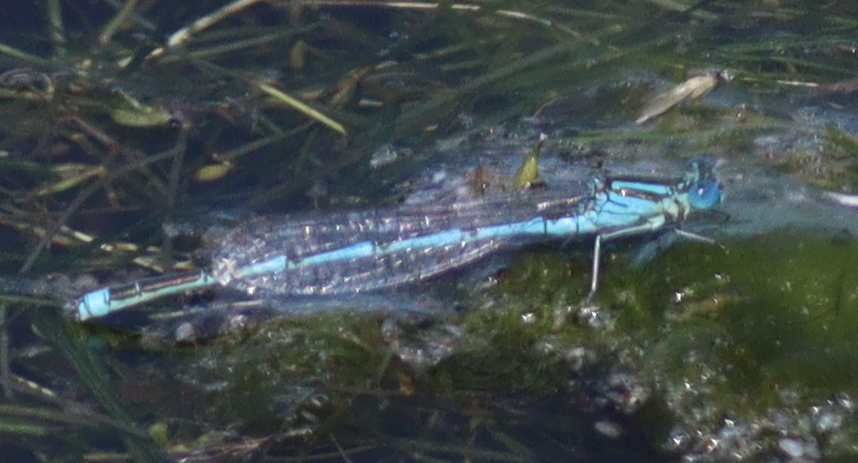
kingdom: Animalia
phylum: Arthropoda
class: Insecta
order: Odonata
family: Coenagrionidae
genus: Erythromma
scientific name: Erythromma lindenii
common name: Blue-eye
